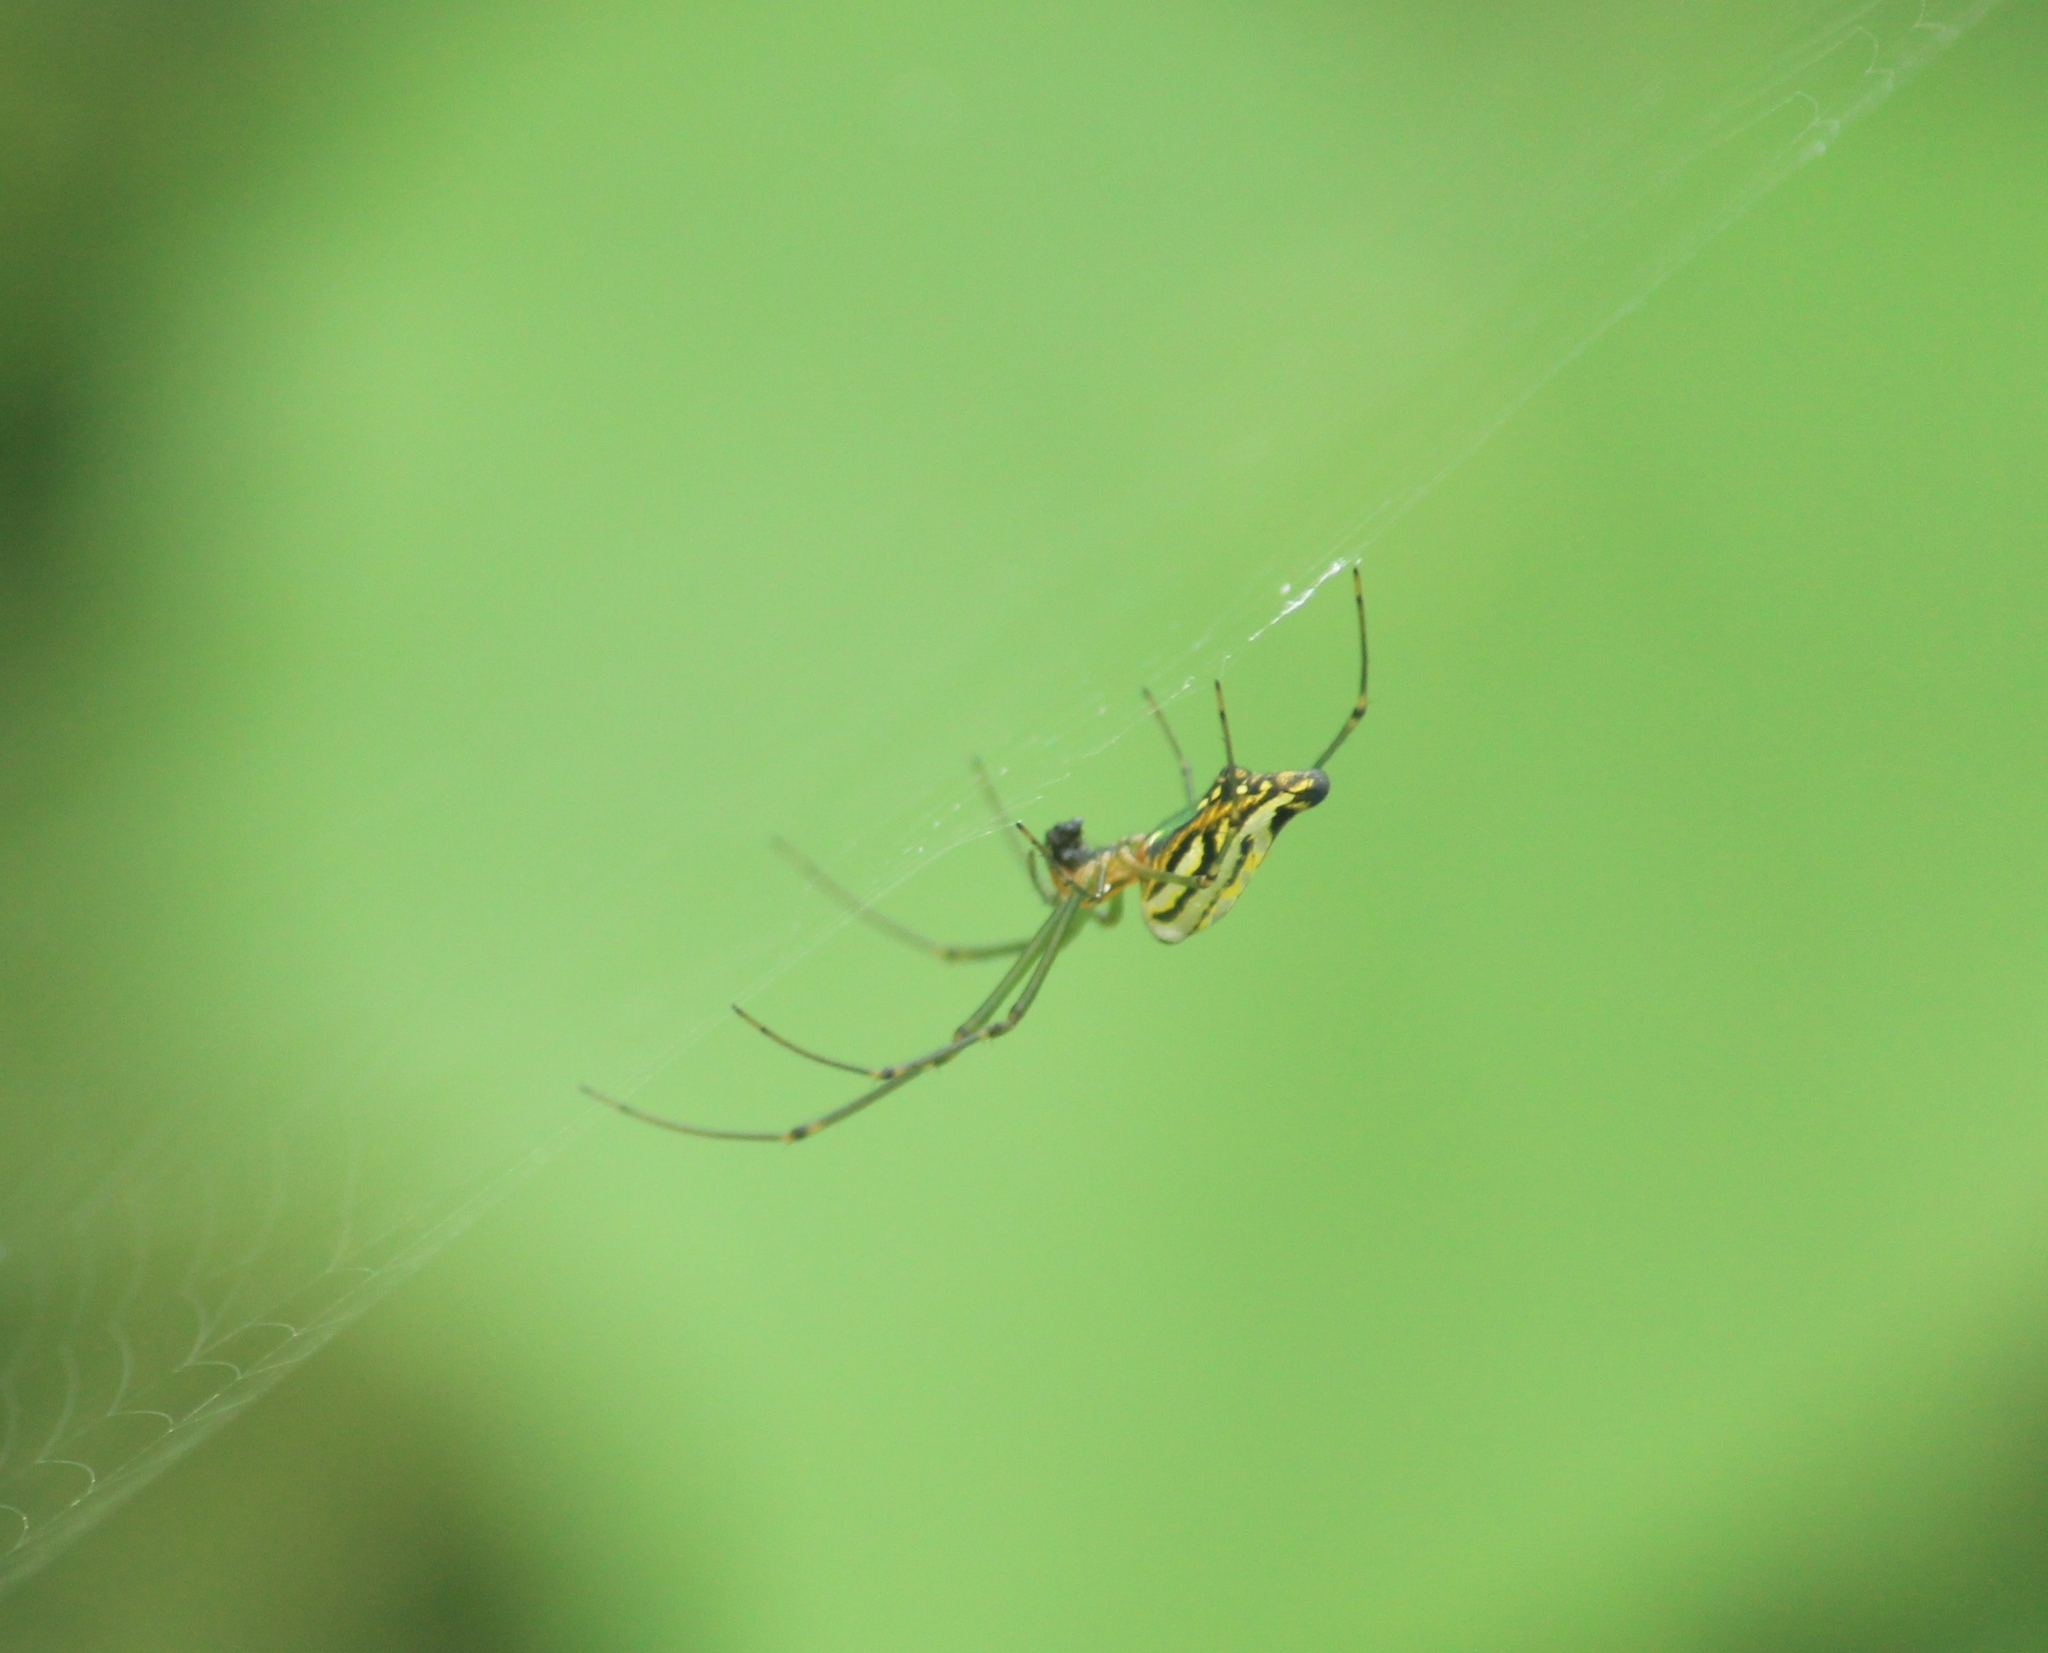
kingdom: Animalia
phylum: Arthropoda
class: Arachnida
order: Araneae
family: Tetragnathidae
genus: Leucauge
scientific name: Leucauge decorata
